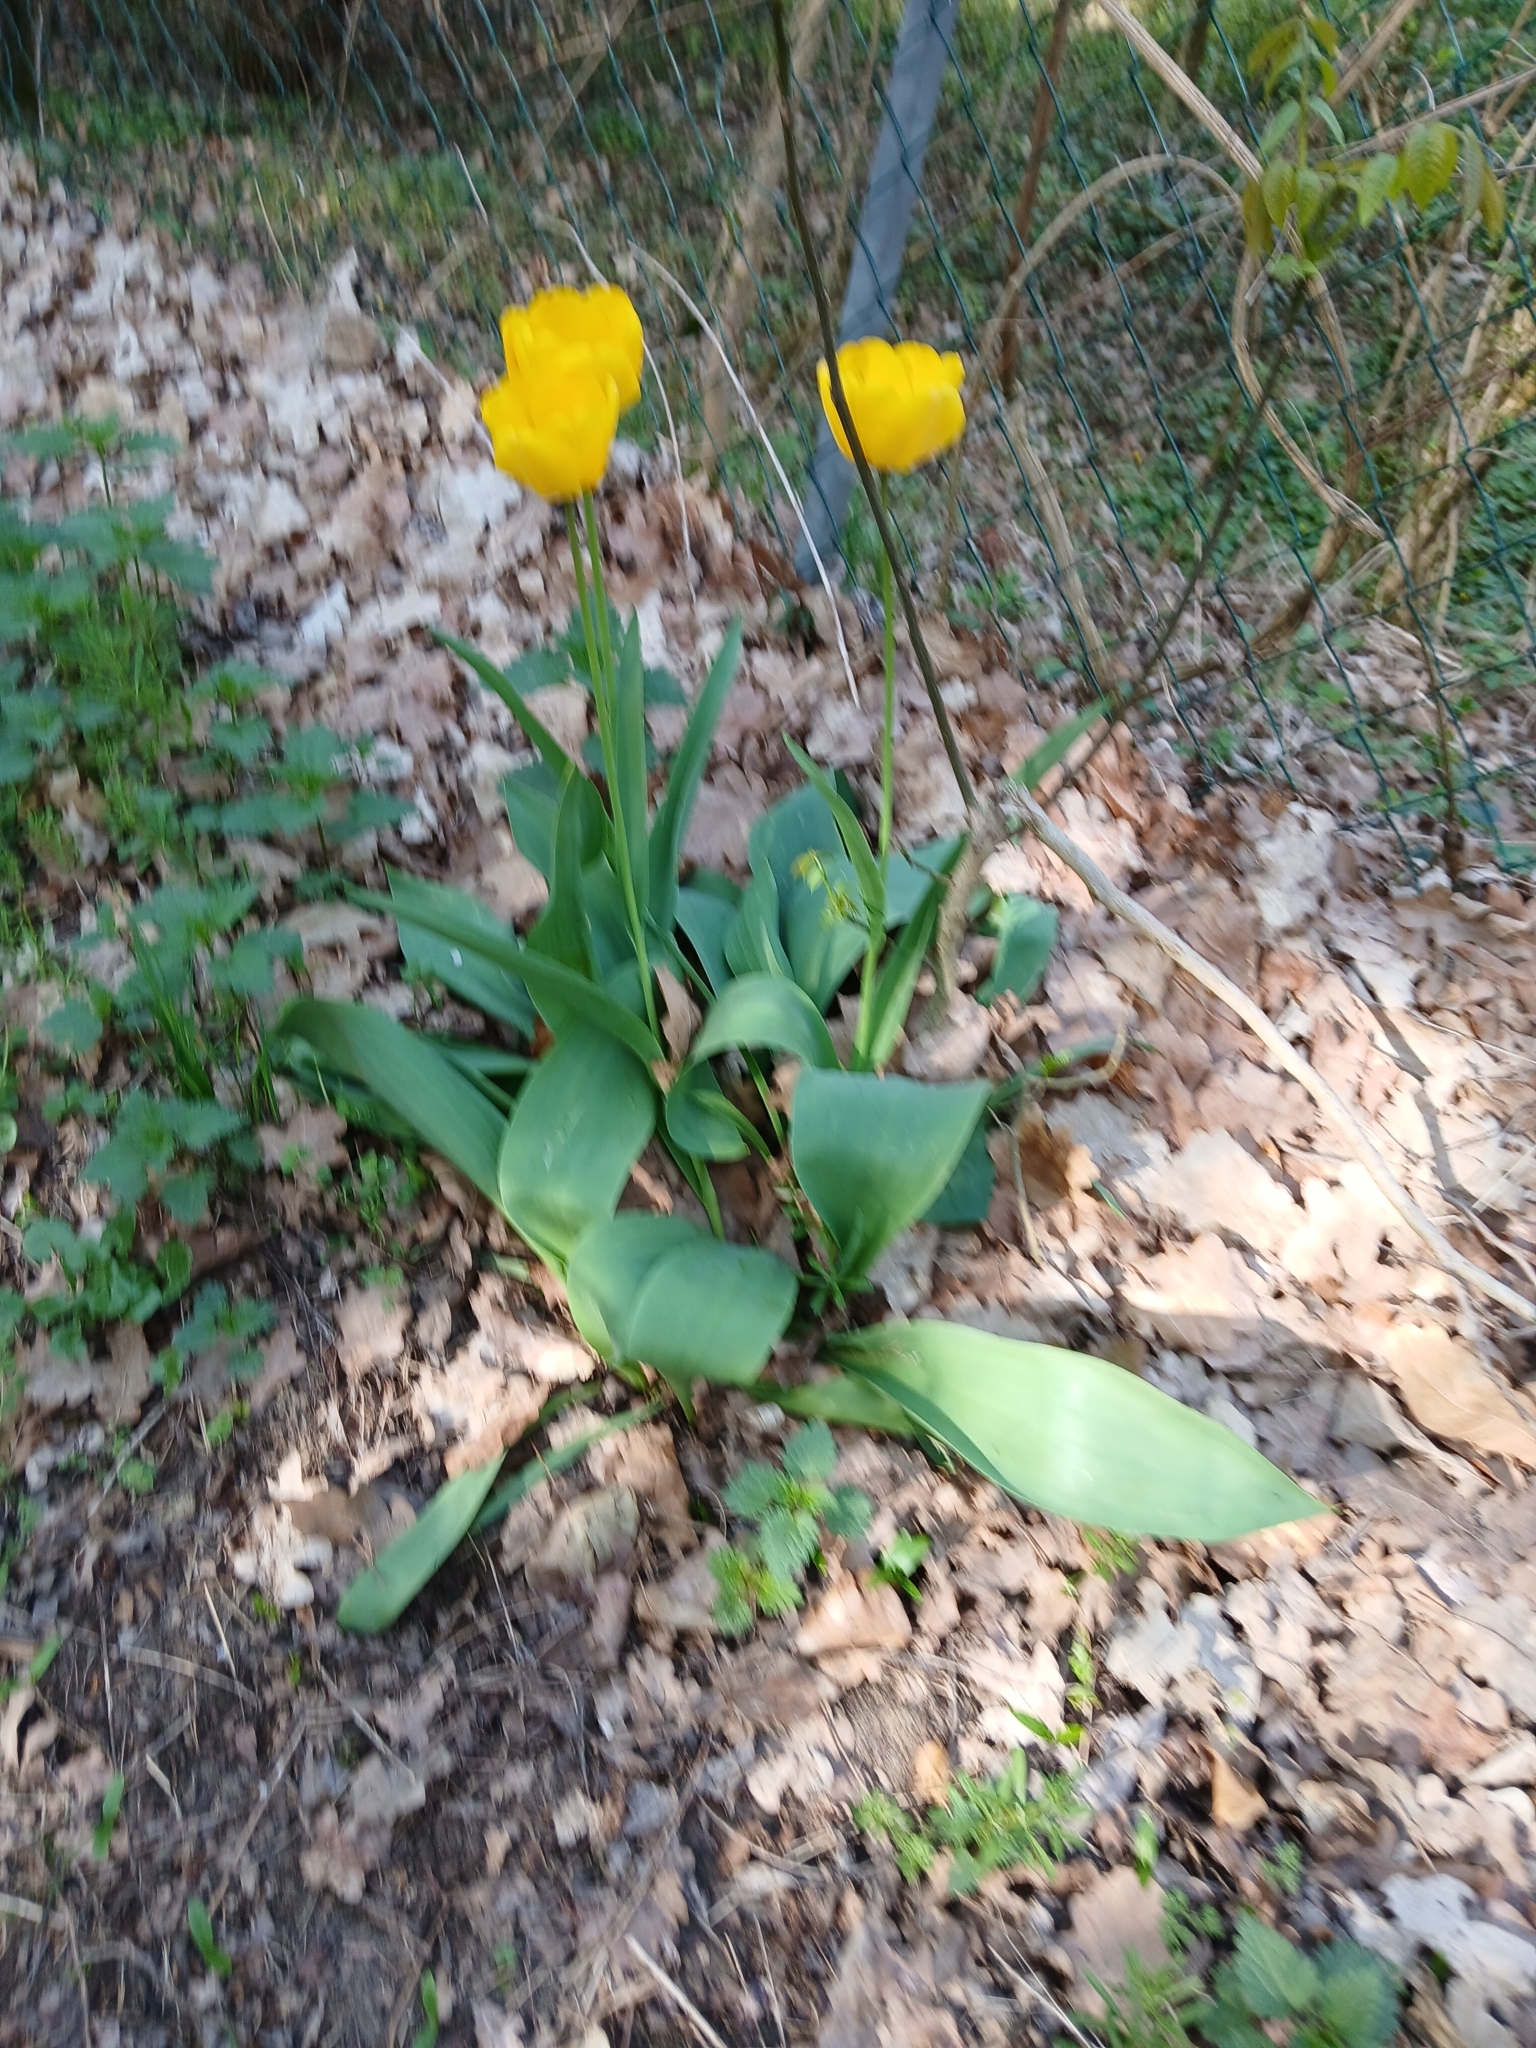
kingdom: Plantae
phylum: Tracheophyta
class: Liliopsida
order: Liliales
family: Liliaceae
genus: Tulipa
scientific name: Tulipa gesneriana
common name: Garden tulip
